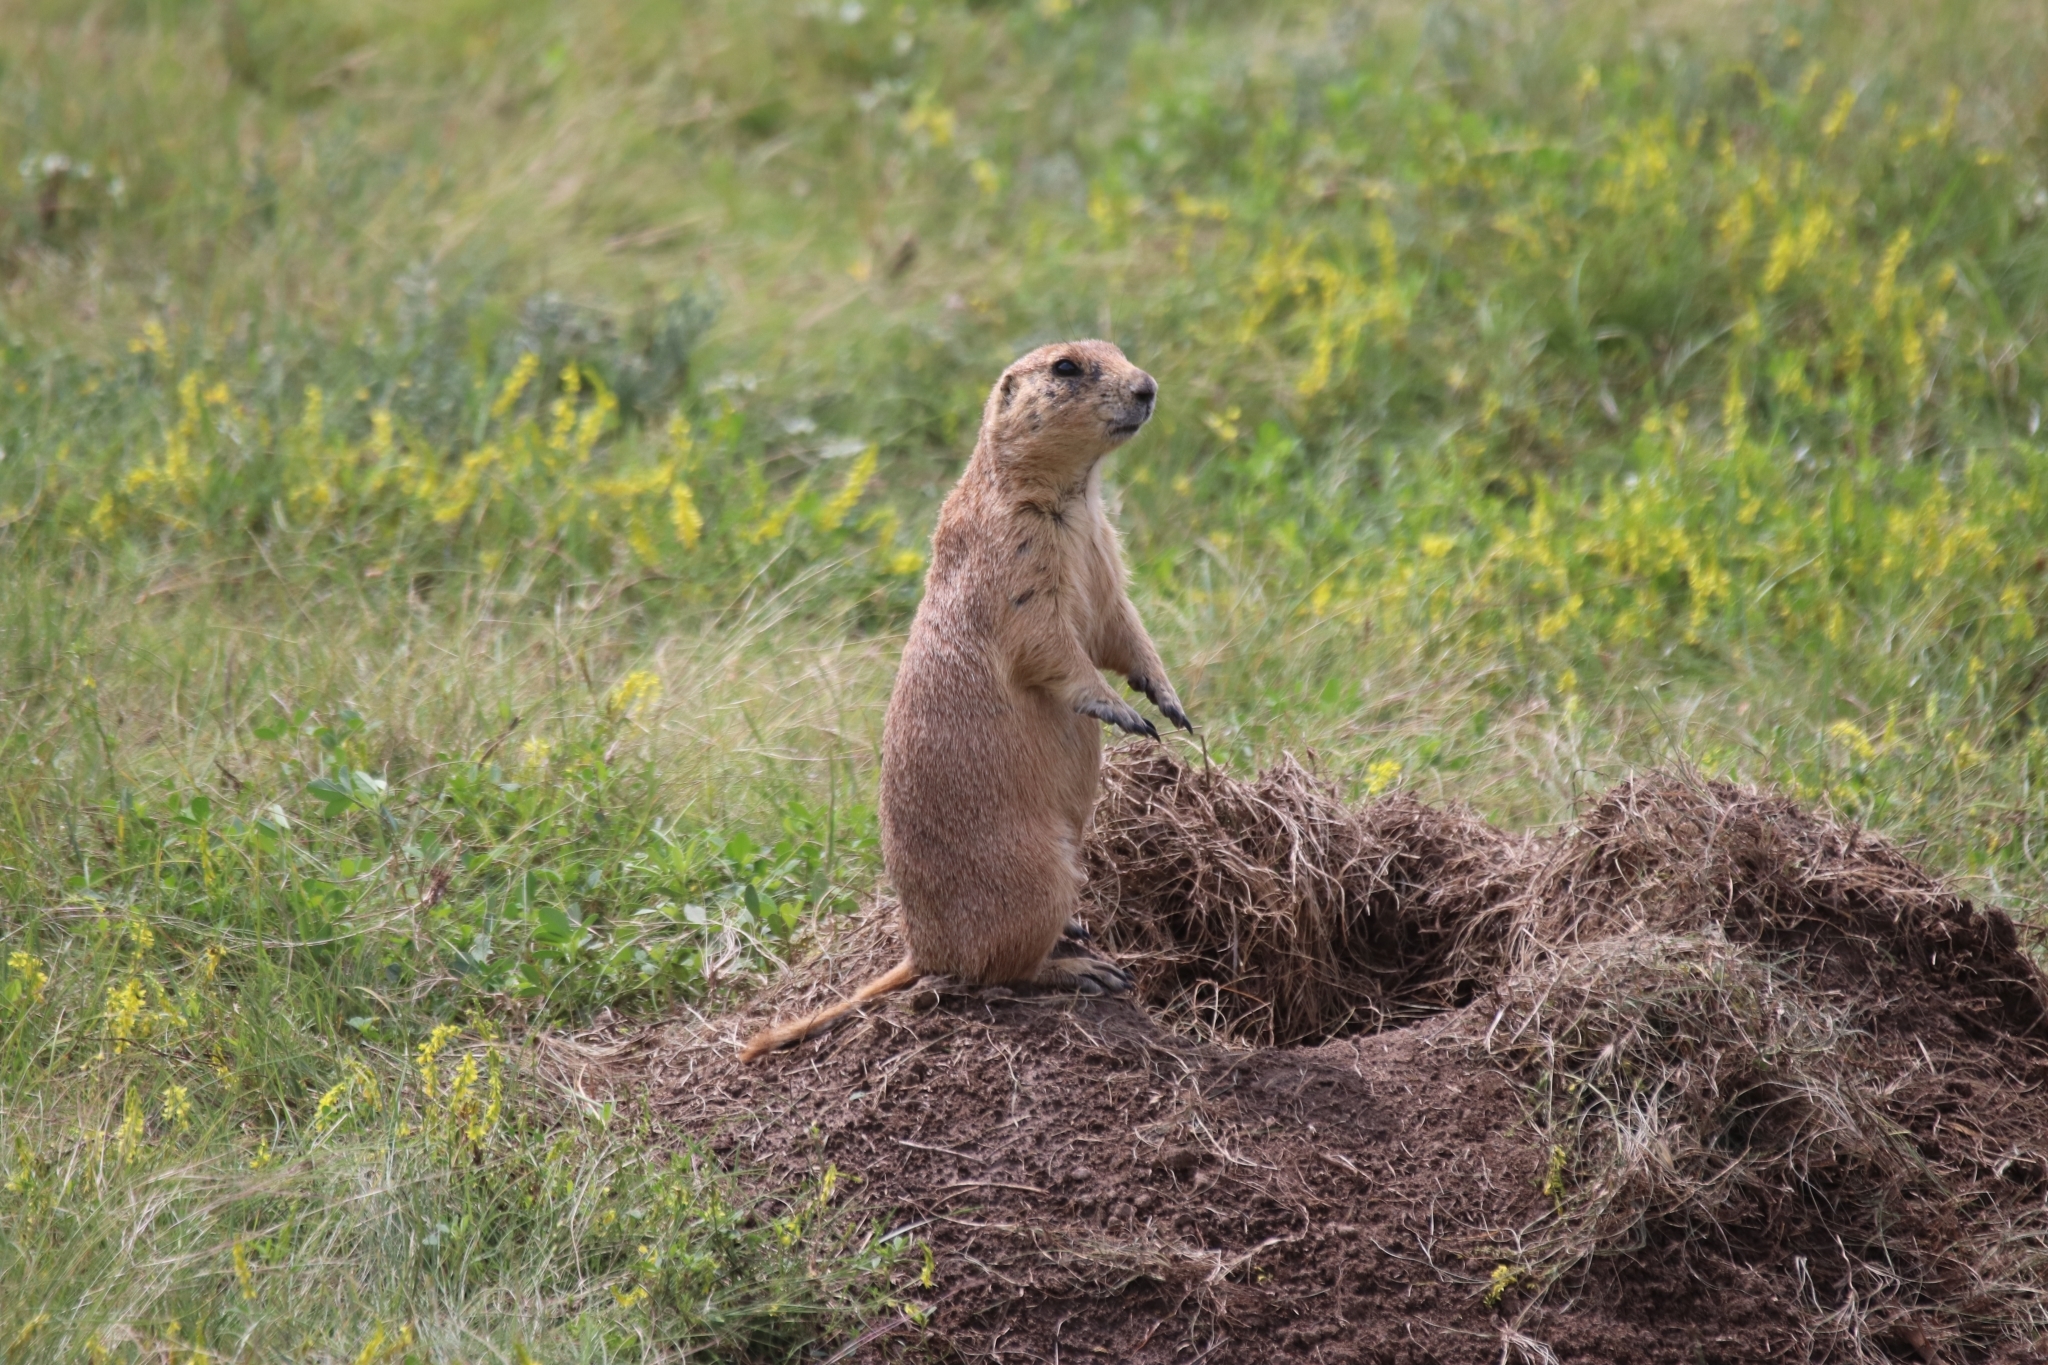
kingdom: Animalia
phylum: Chordata
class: Mammalia
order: Rodentia
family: Sciuridae
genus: Cynomys
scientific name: Cynomys ludovicianus
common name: Black-tailed prairie dog
